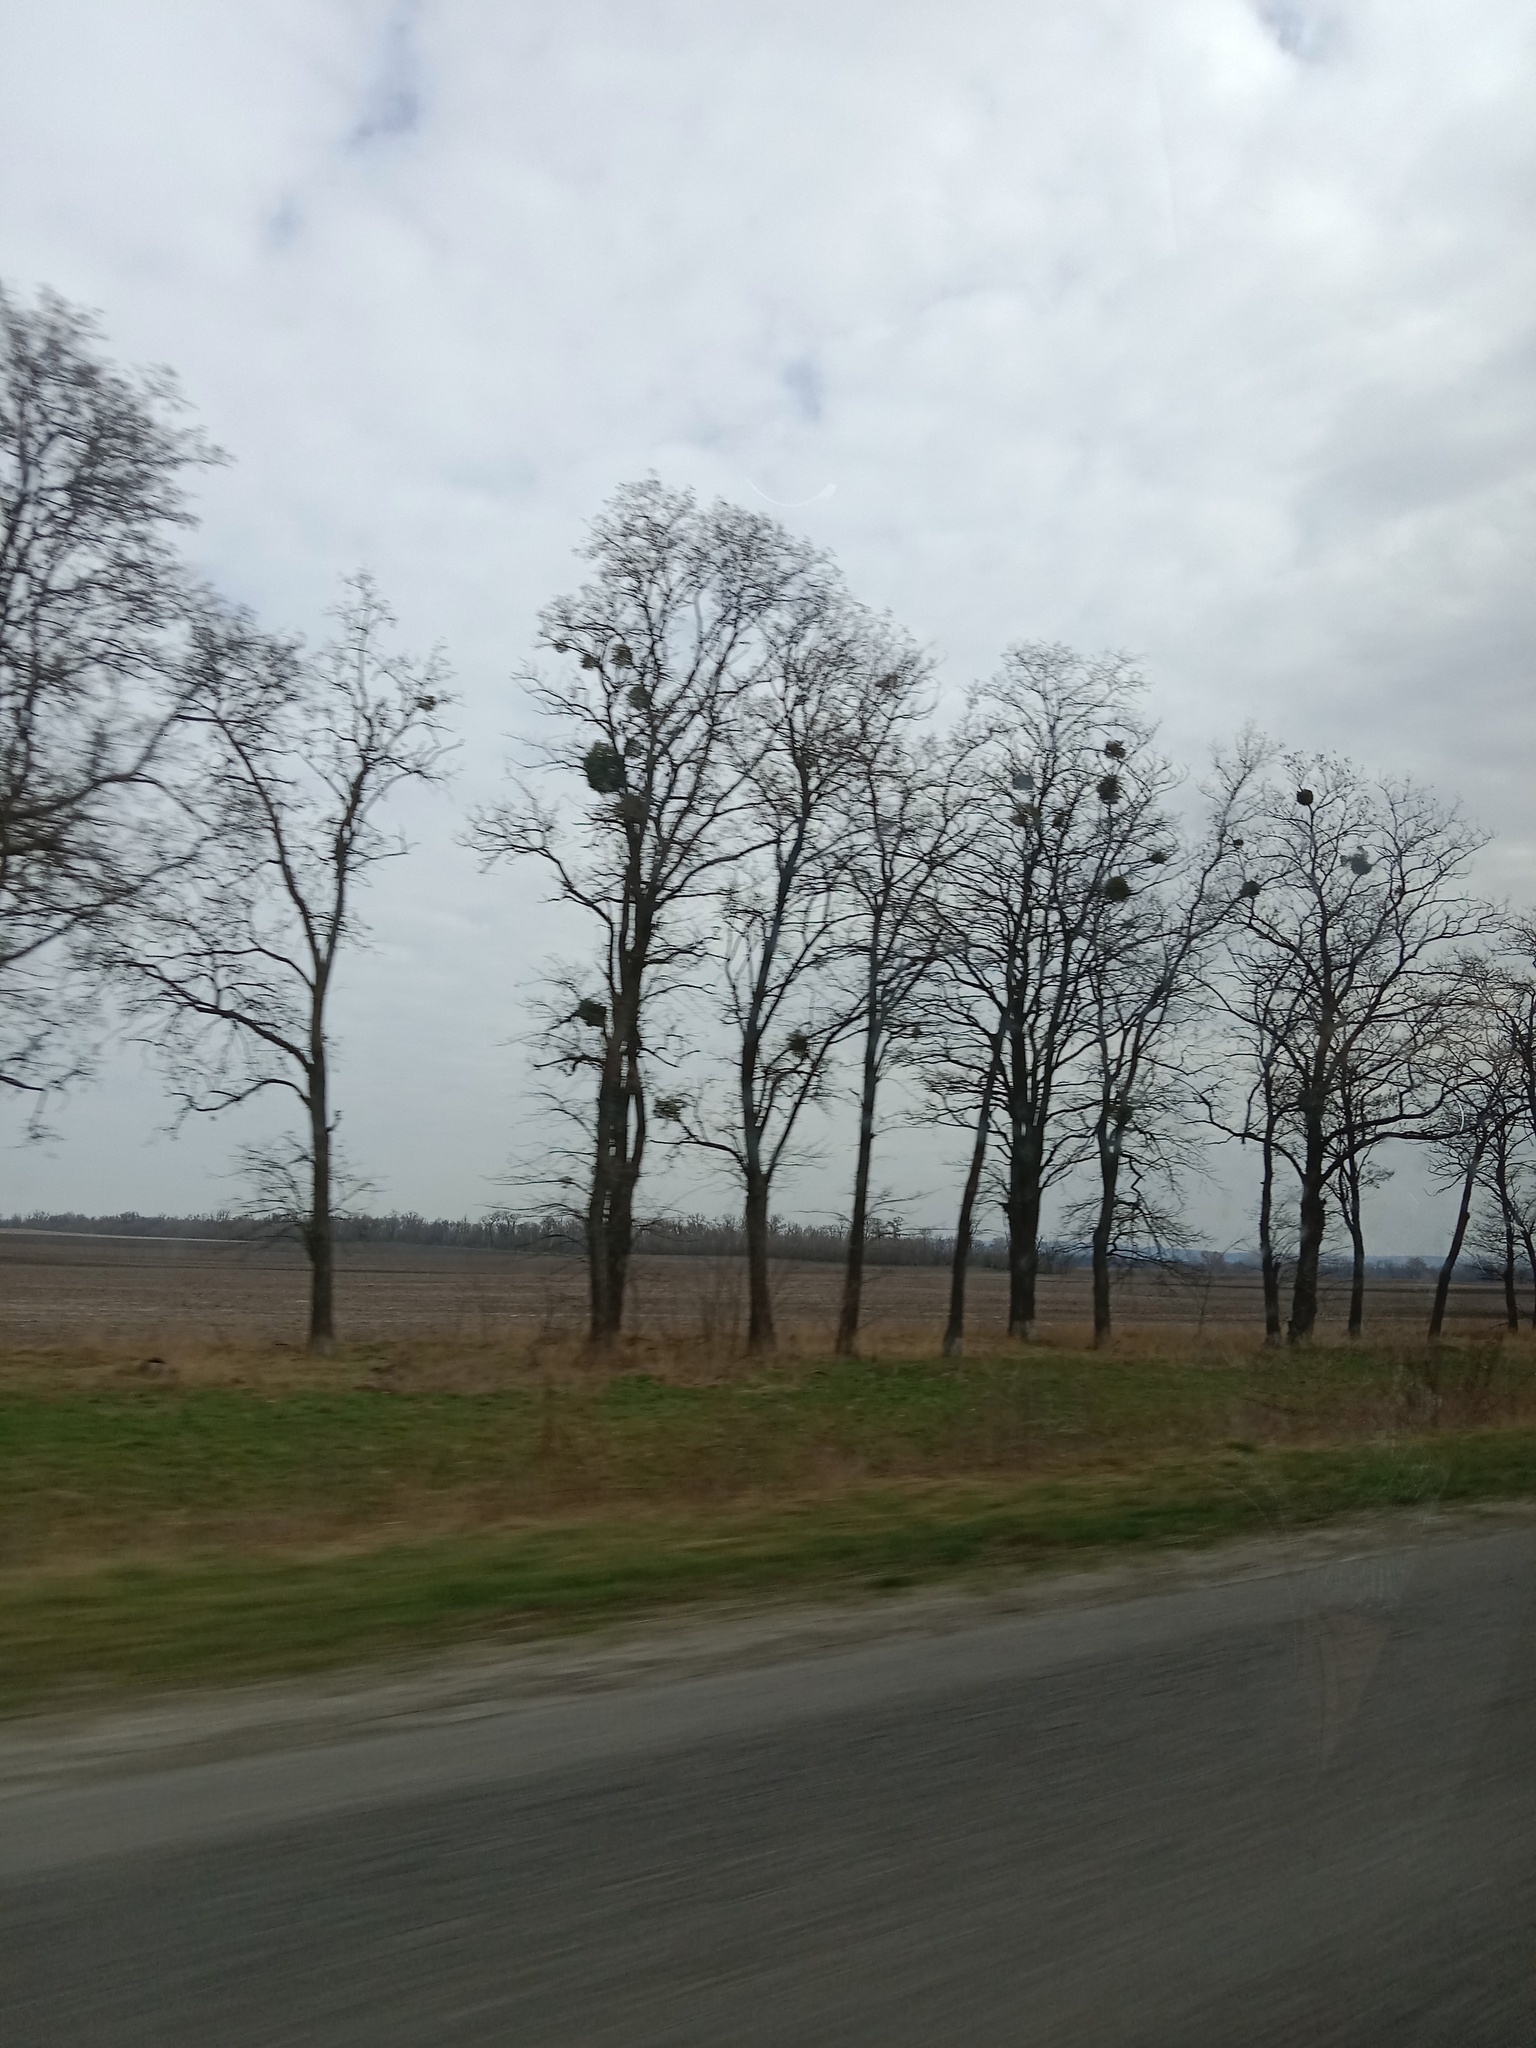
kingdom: Plantae
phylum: Tracheophyta
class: Magnoliopsida
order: Santalales
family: Viscaceae
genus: Viscum
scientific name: Viscum album
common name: Mistletoe
